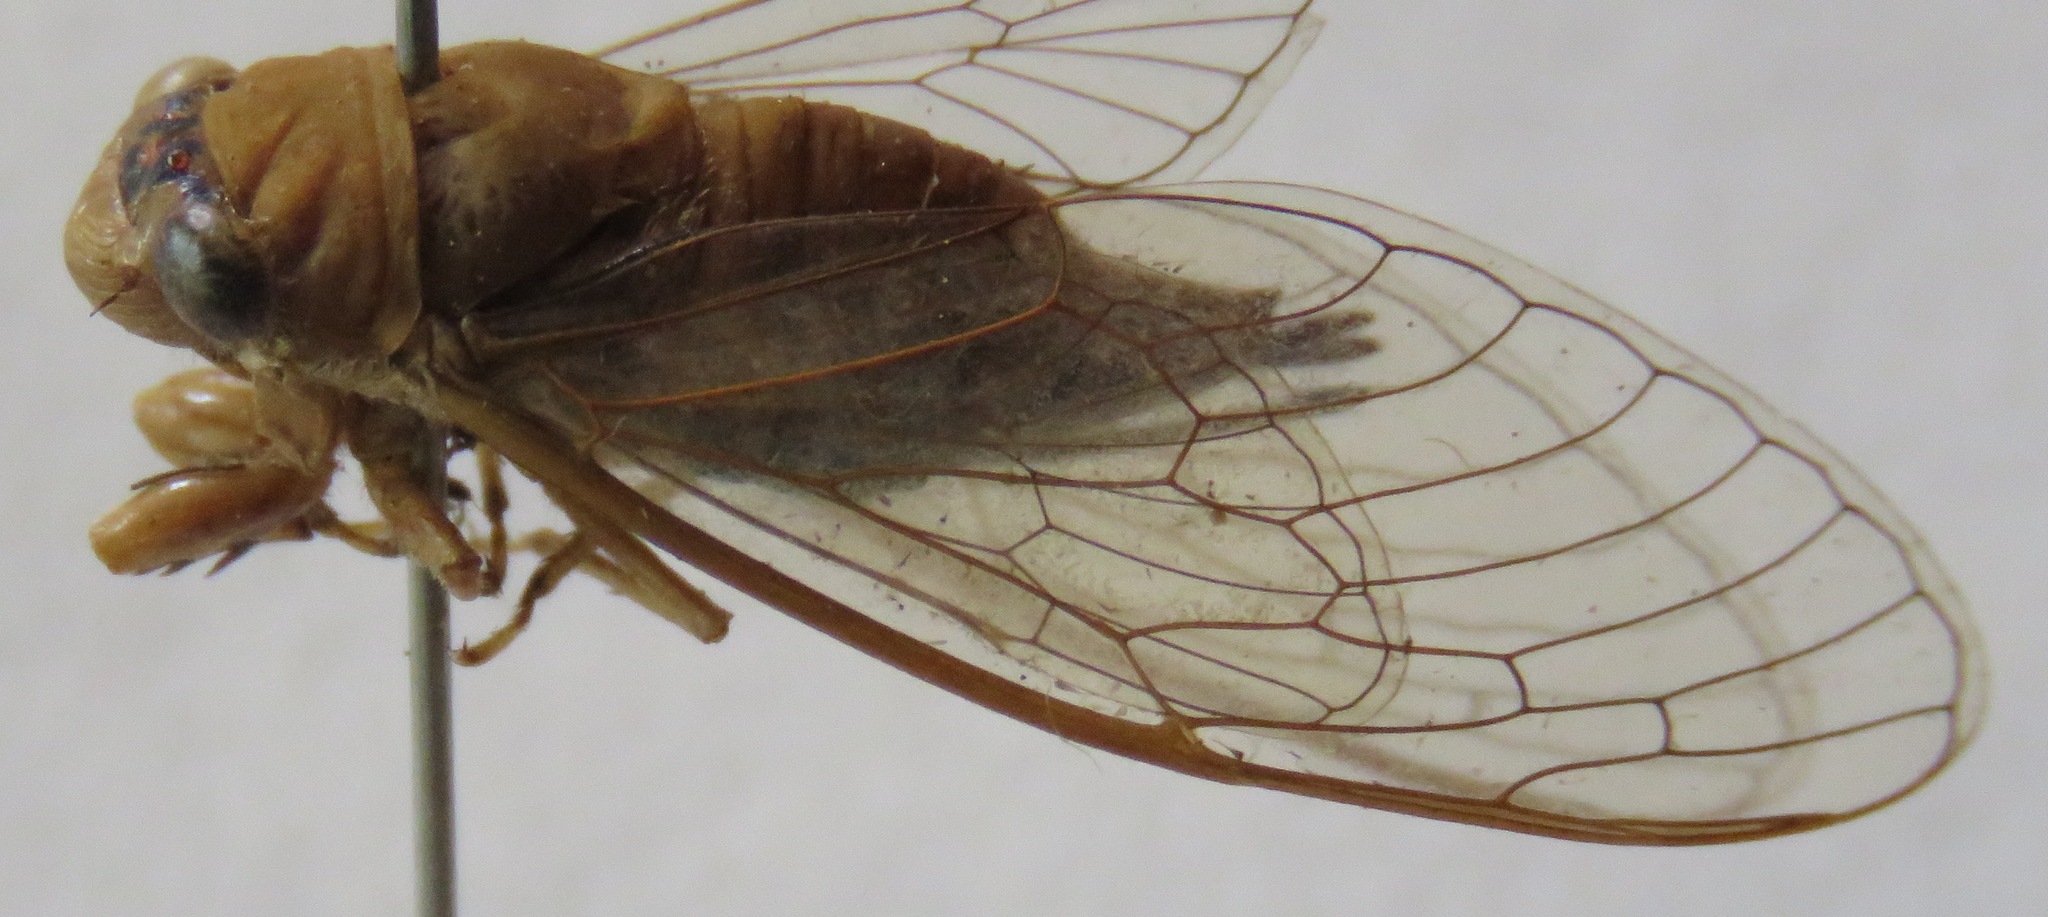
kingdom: Animalia
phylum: Arthropoda
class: Insecta
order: Hemiptera
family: Cicadidae
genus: Herrera
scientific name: Herrera coyamensis
